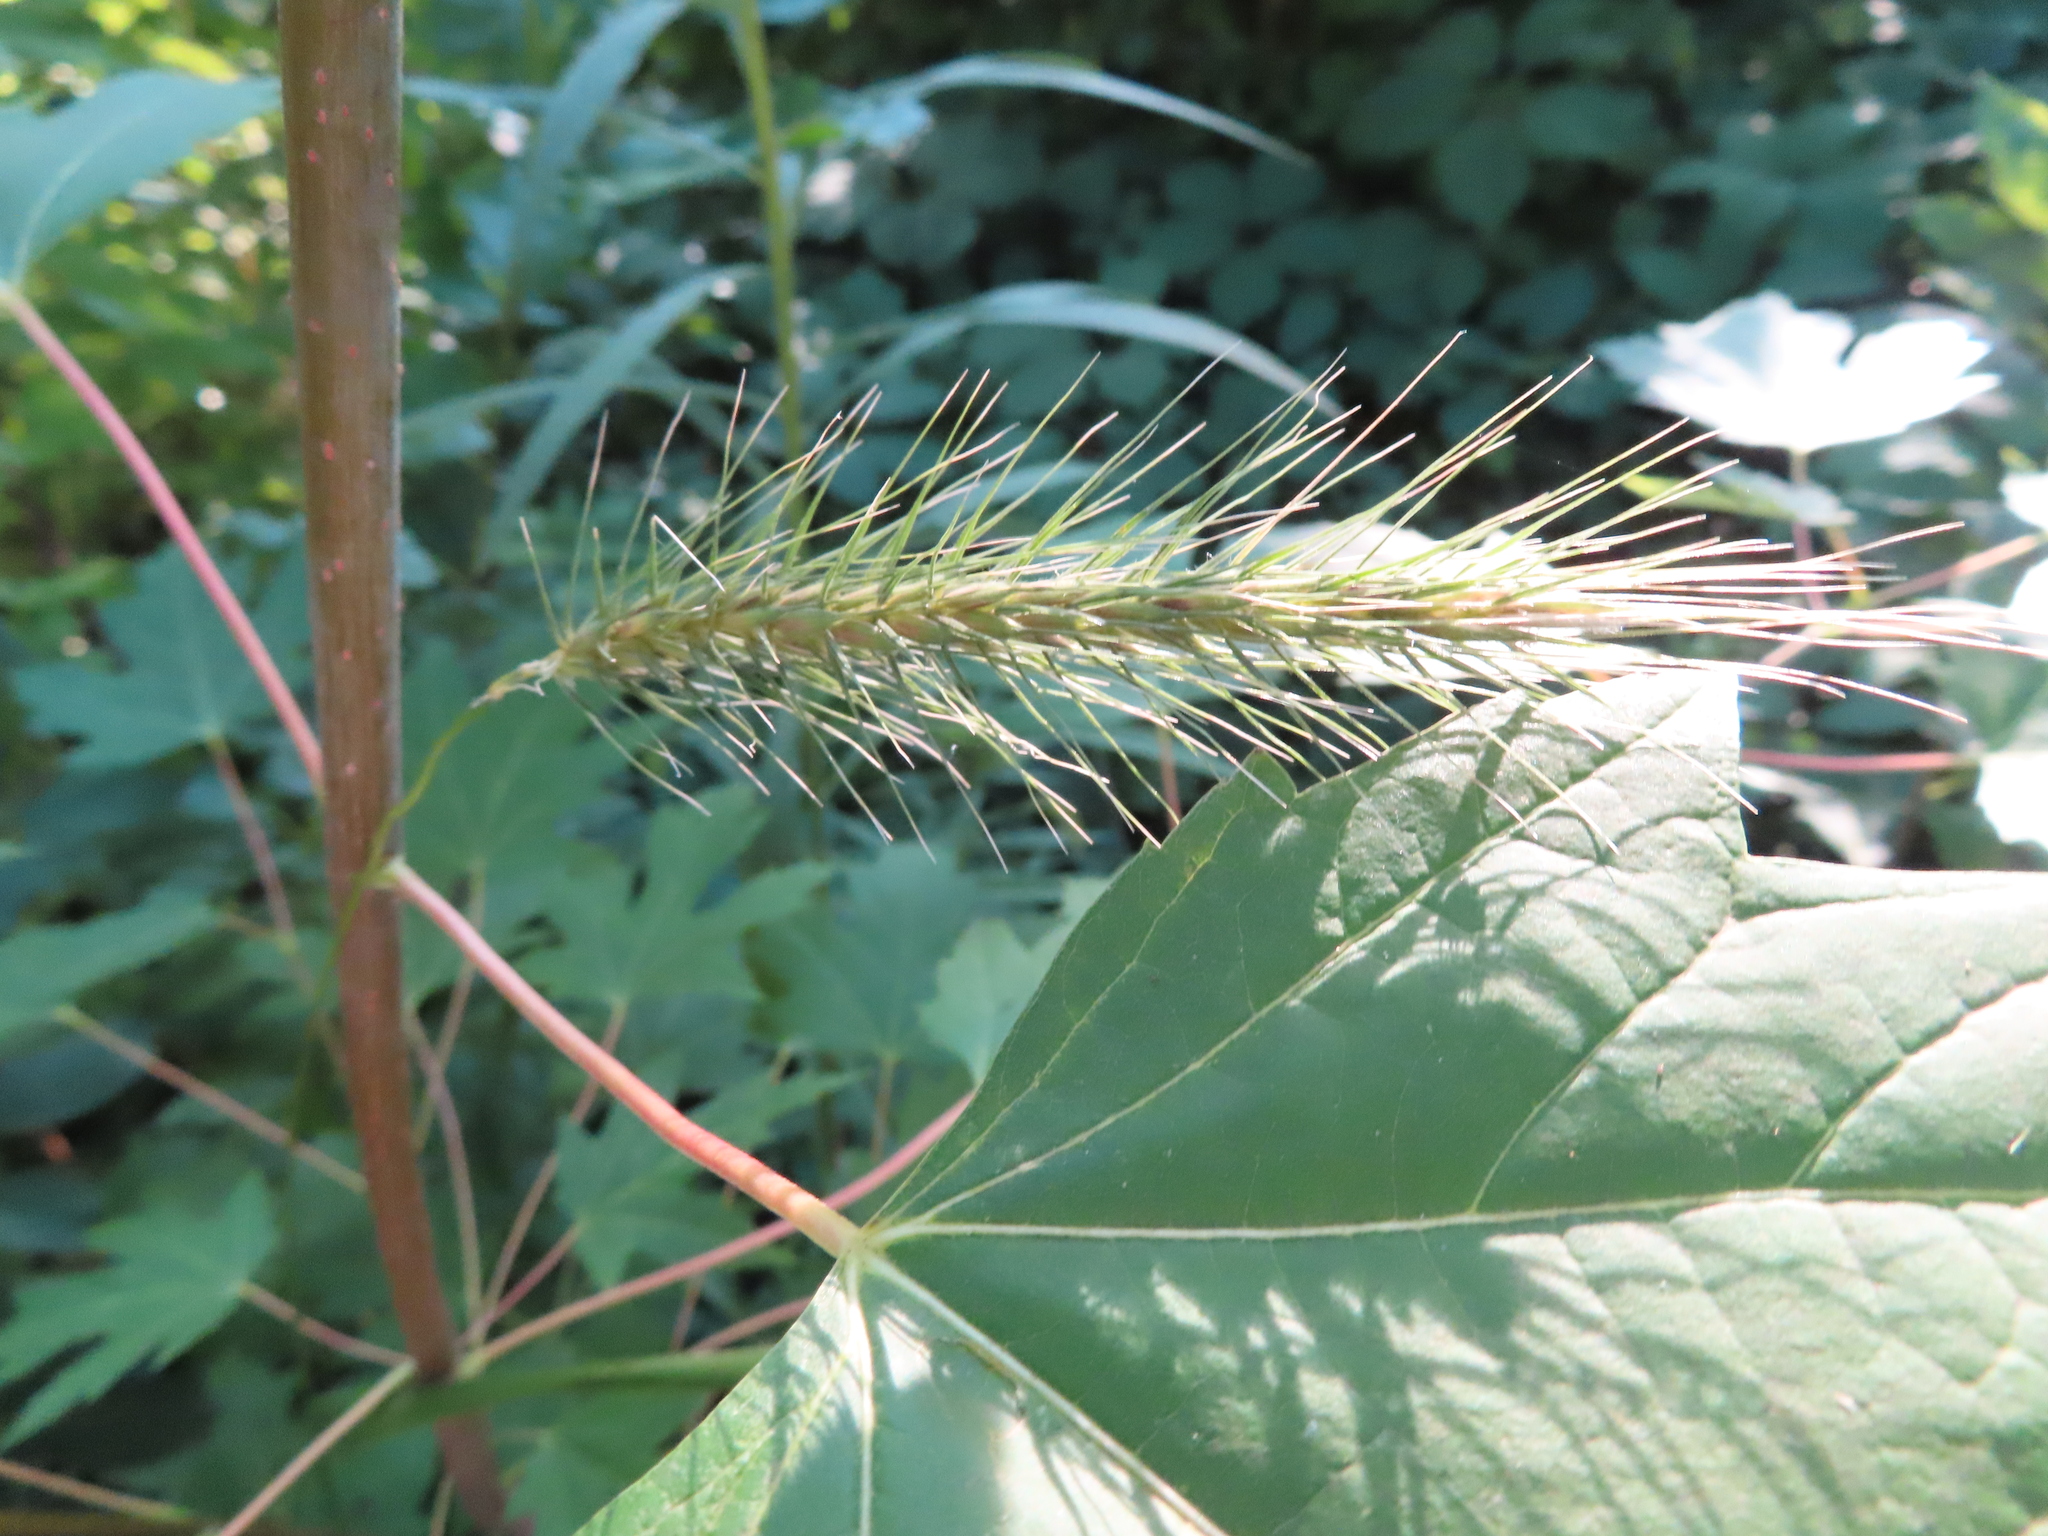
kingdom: Plantae
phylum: Tracheophyta
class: Liliopsida
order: Poales
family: Poaceae
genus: Elymus
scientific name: Elymus villosus
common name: Downy wild rye
